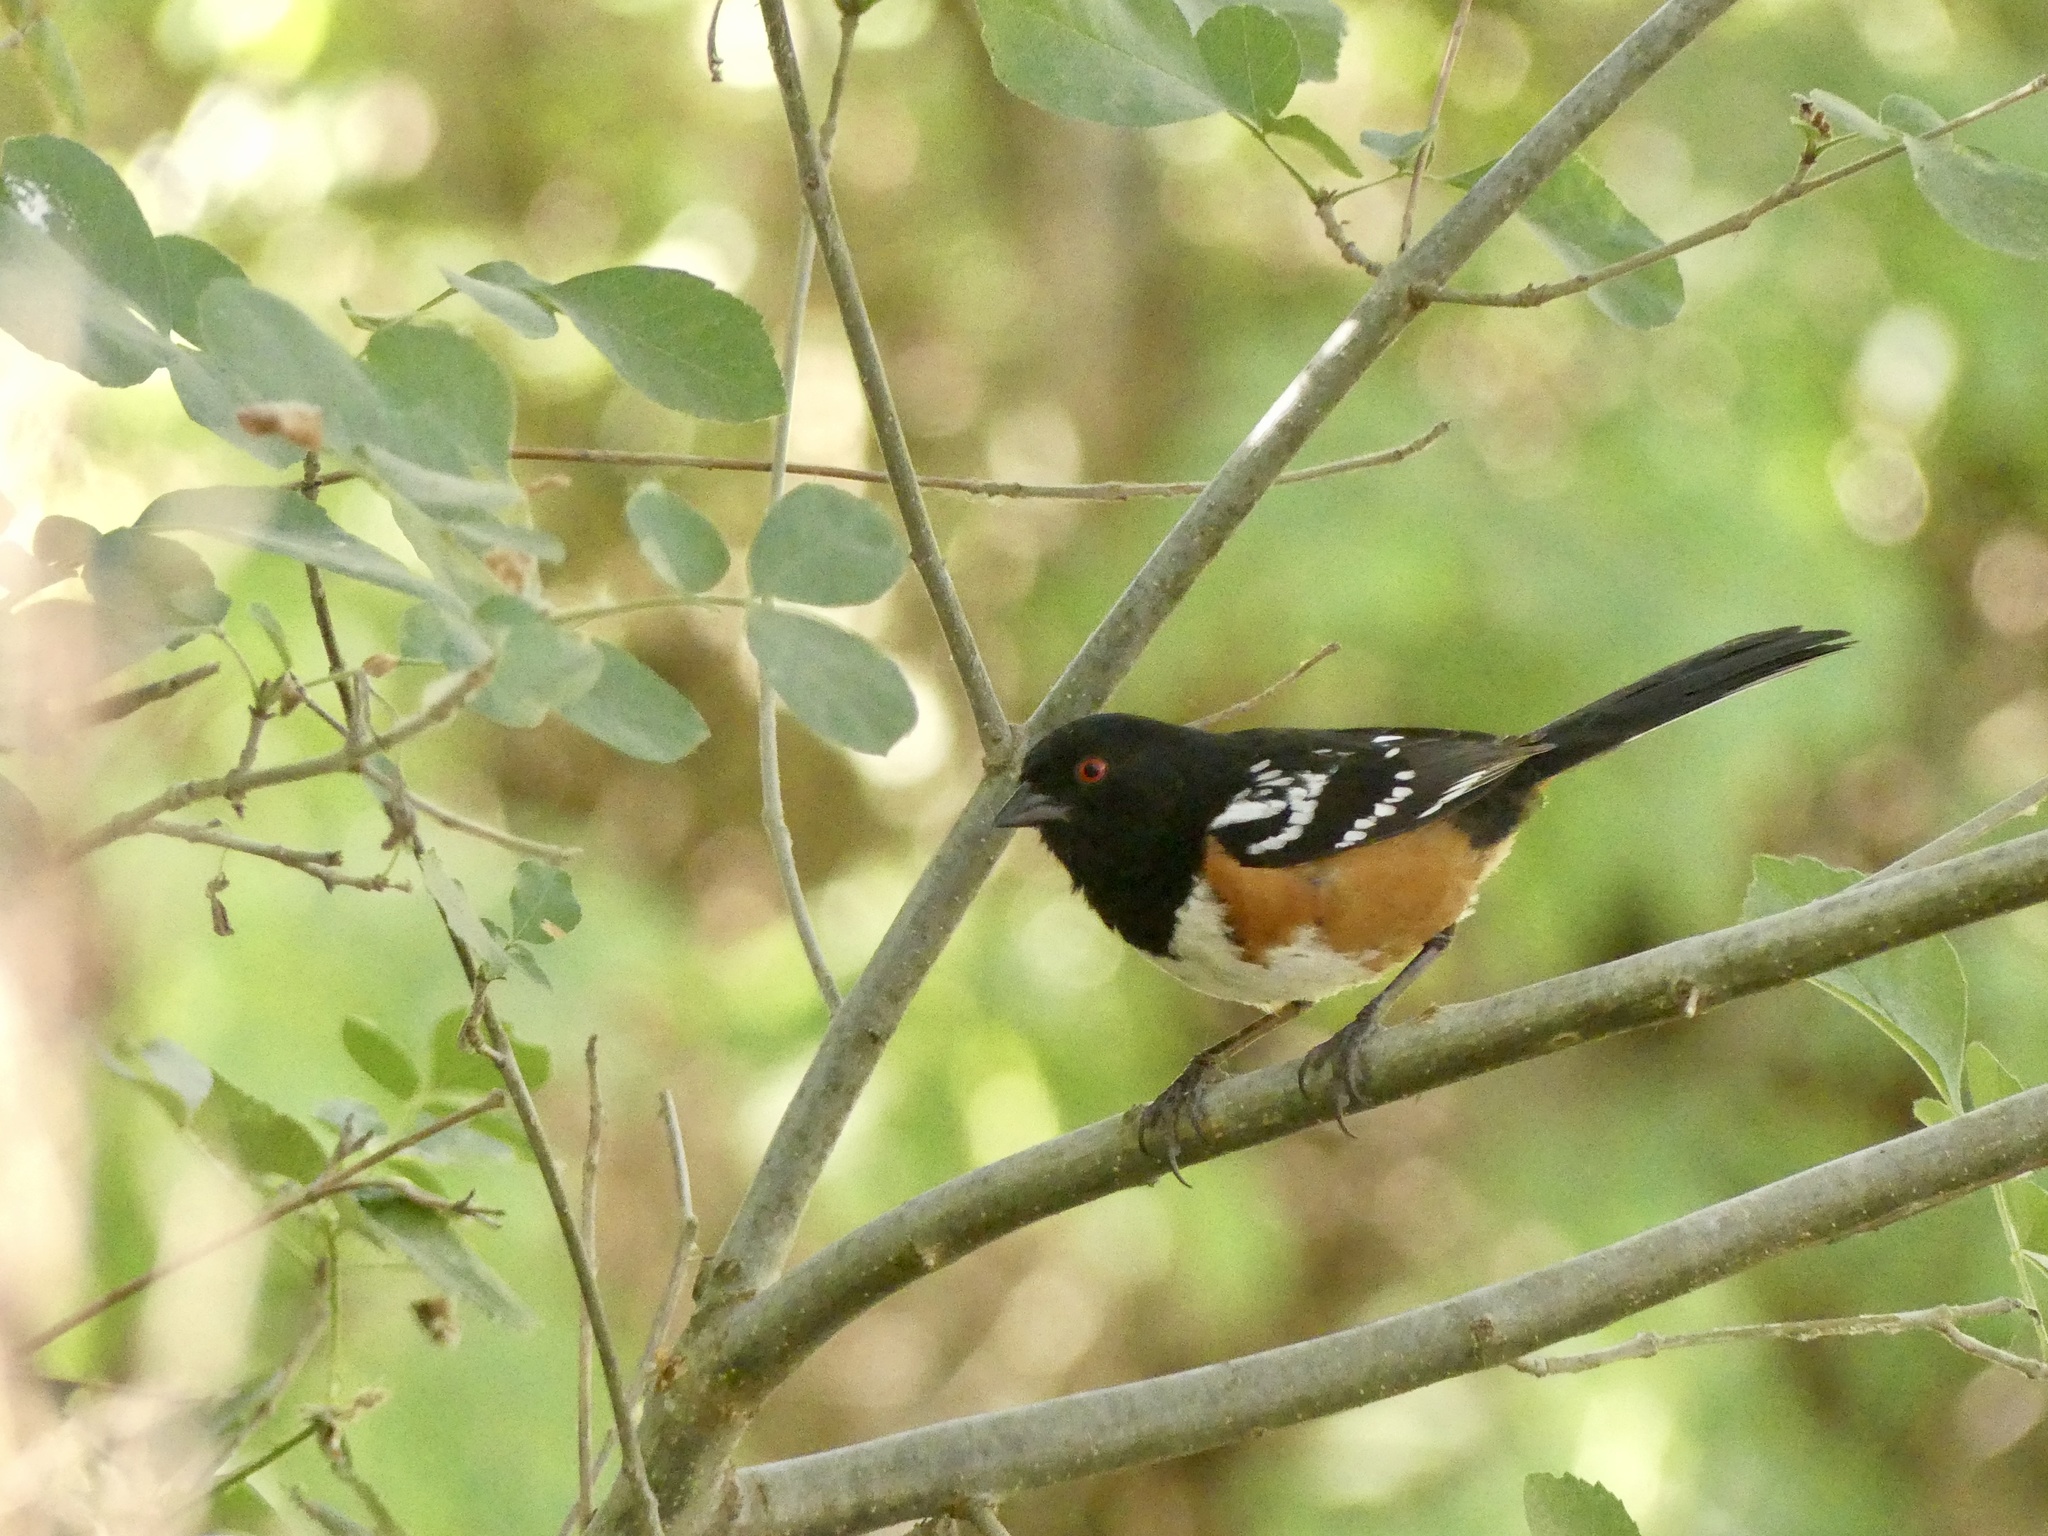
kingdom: Animalia
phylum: Chordata
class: Aves
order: Passeriformes
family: Passerellidae
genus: Pipilo
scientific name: Pipilo maculatus
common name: Spotted towhee
